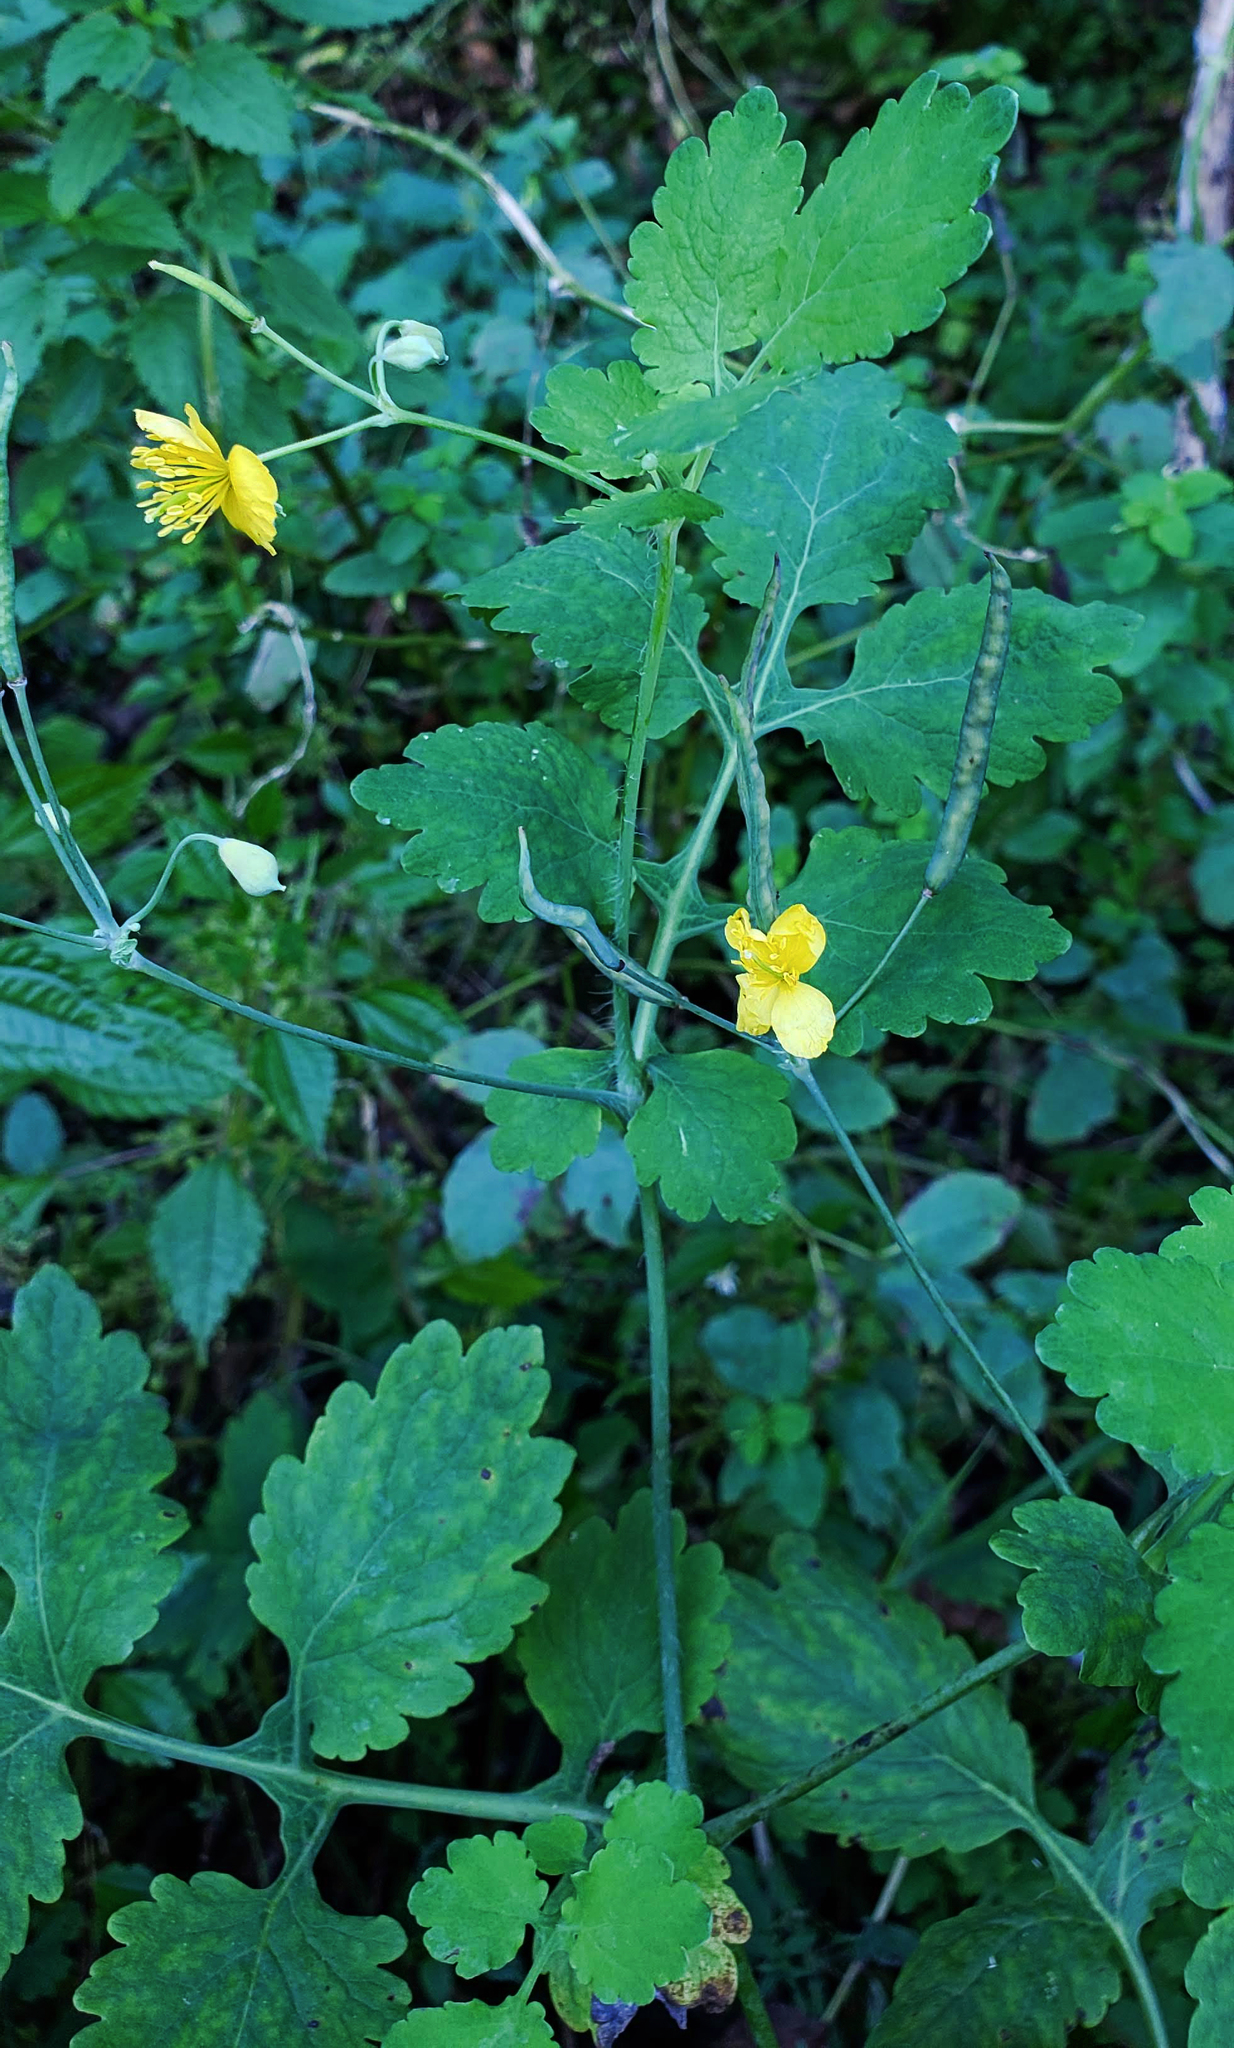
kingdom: Plantae
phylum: Tracheophyta
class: Magnoliopsida
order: Ranunculales
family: Papaveraceae
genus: Chelidonium
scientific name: Chelidonium majus
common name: Greater celandine
